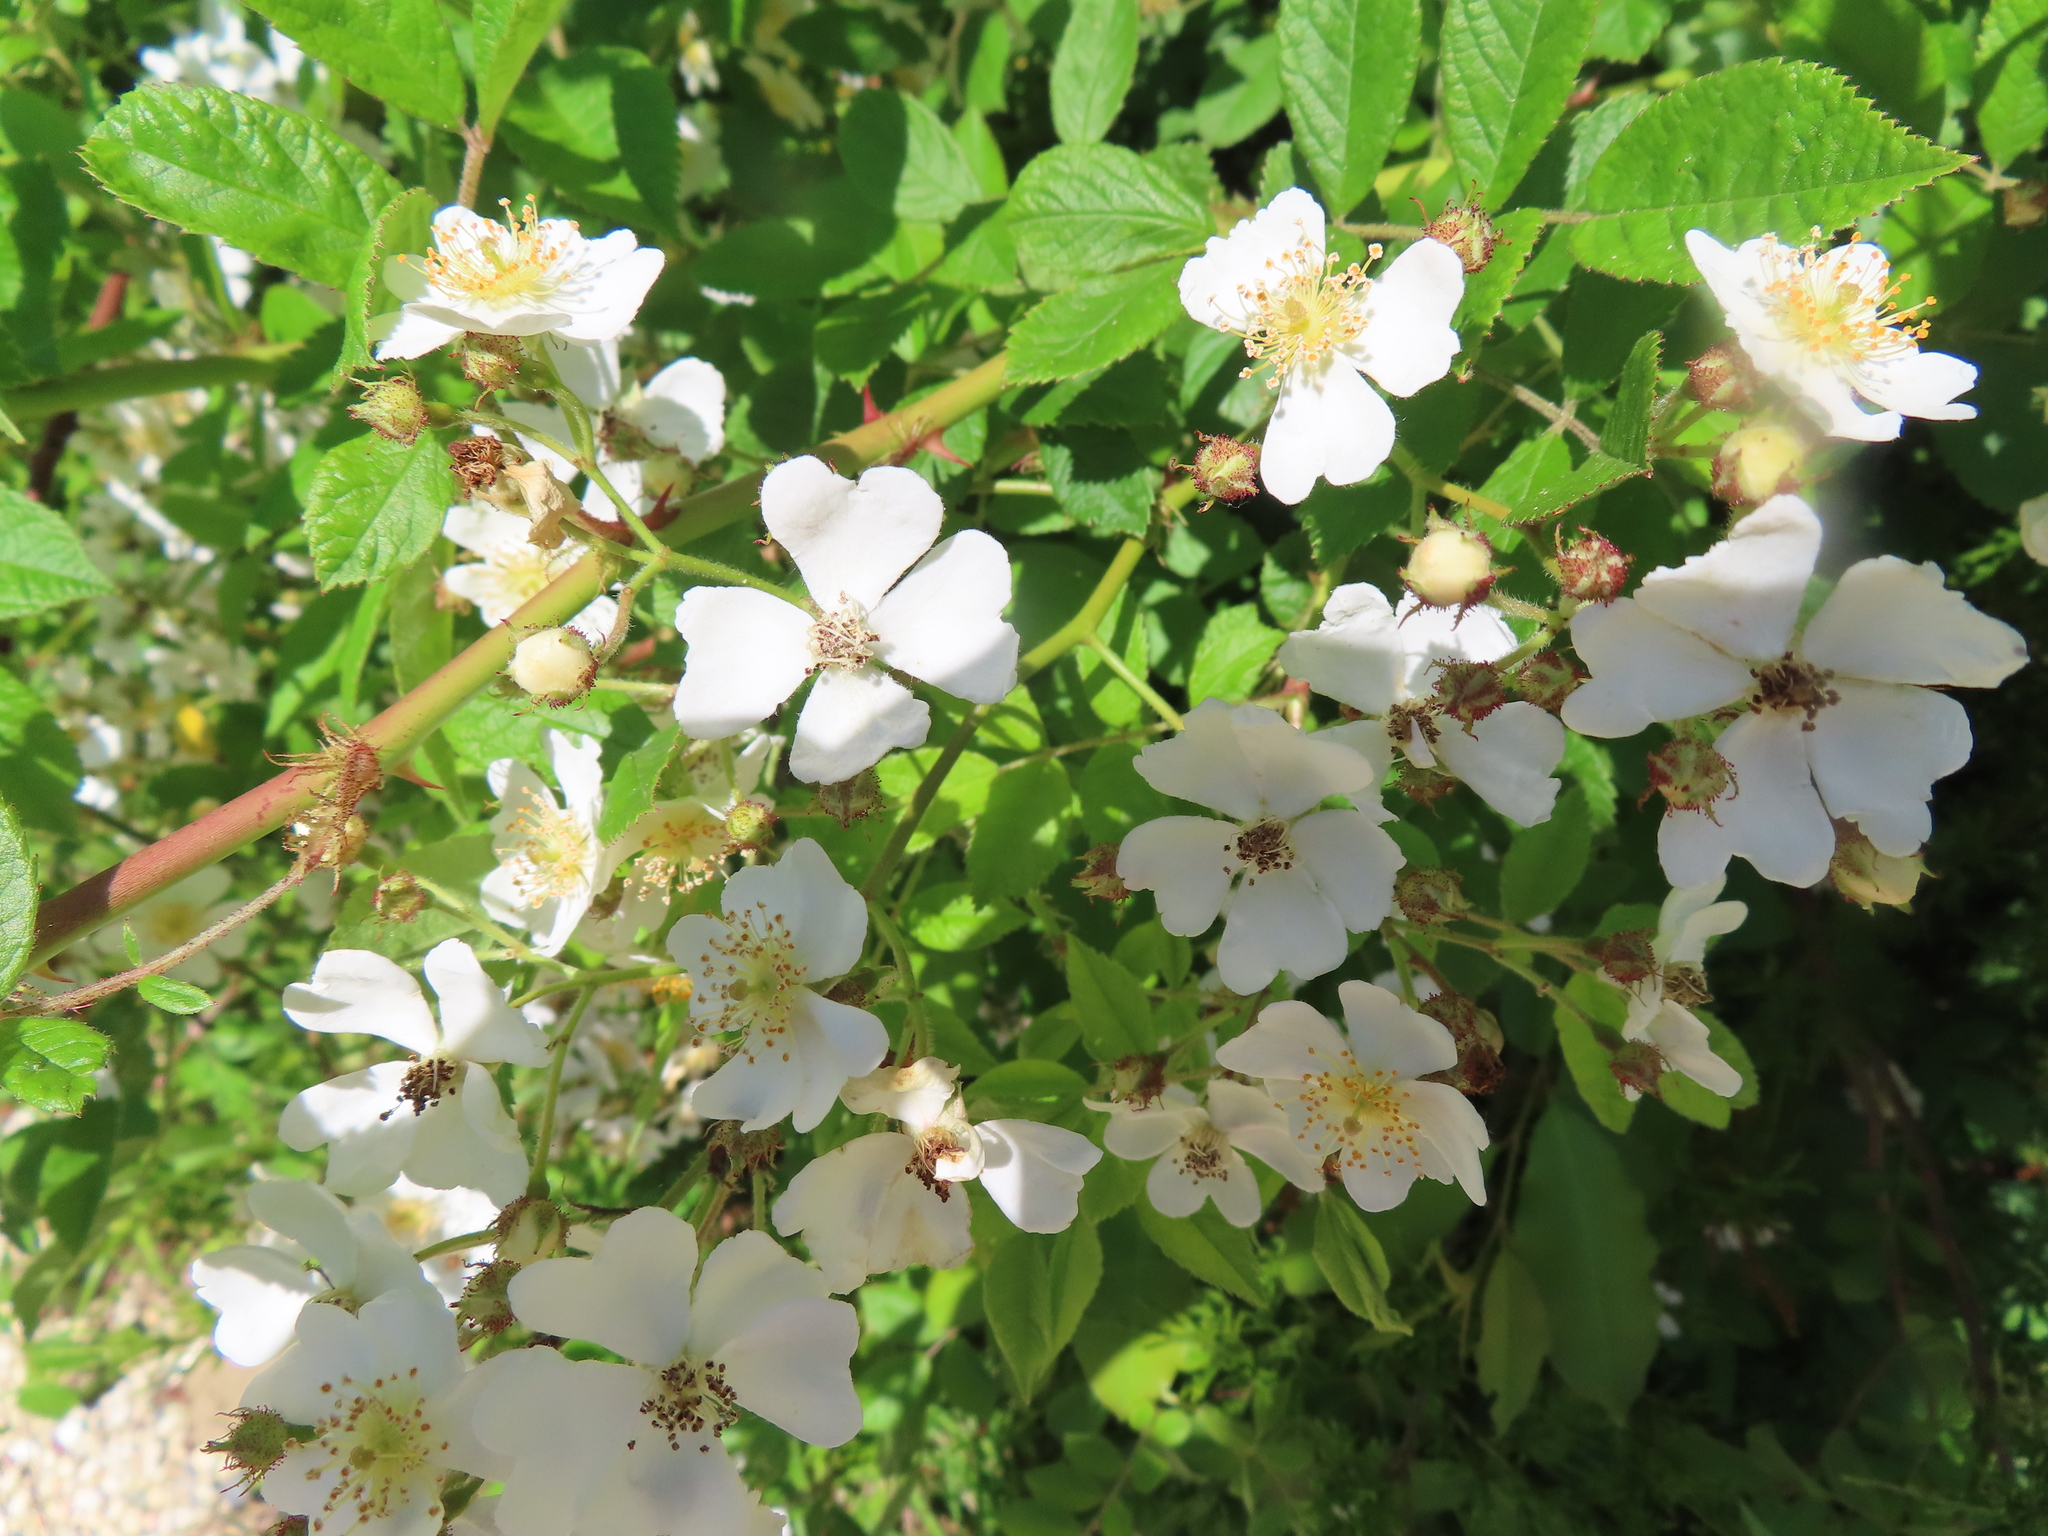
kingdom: Plantae
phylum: Tracheophyta
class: Magnoliopsida
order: Rosales
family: Rosaceae
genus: Rosa
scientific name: Rosa multiflora
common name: Multiflora rose
